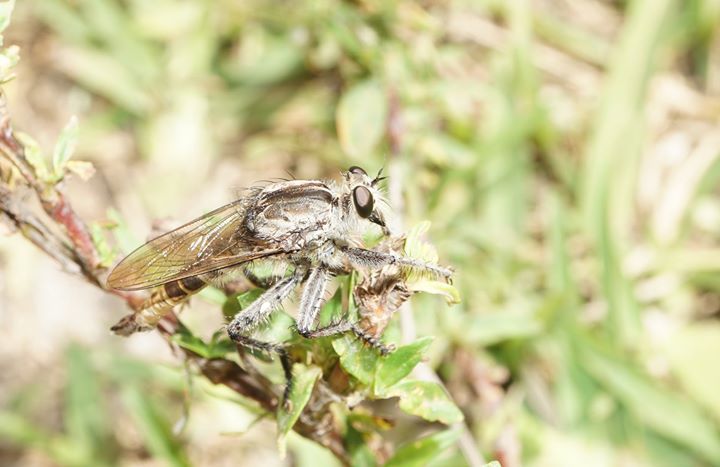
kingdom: Animalia
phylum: Arthropoda
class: Insecta
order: Diptera
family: Asilidae
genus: Triorla
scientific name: Triorla interrupta
